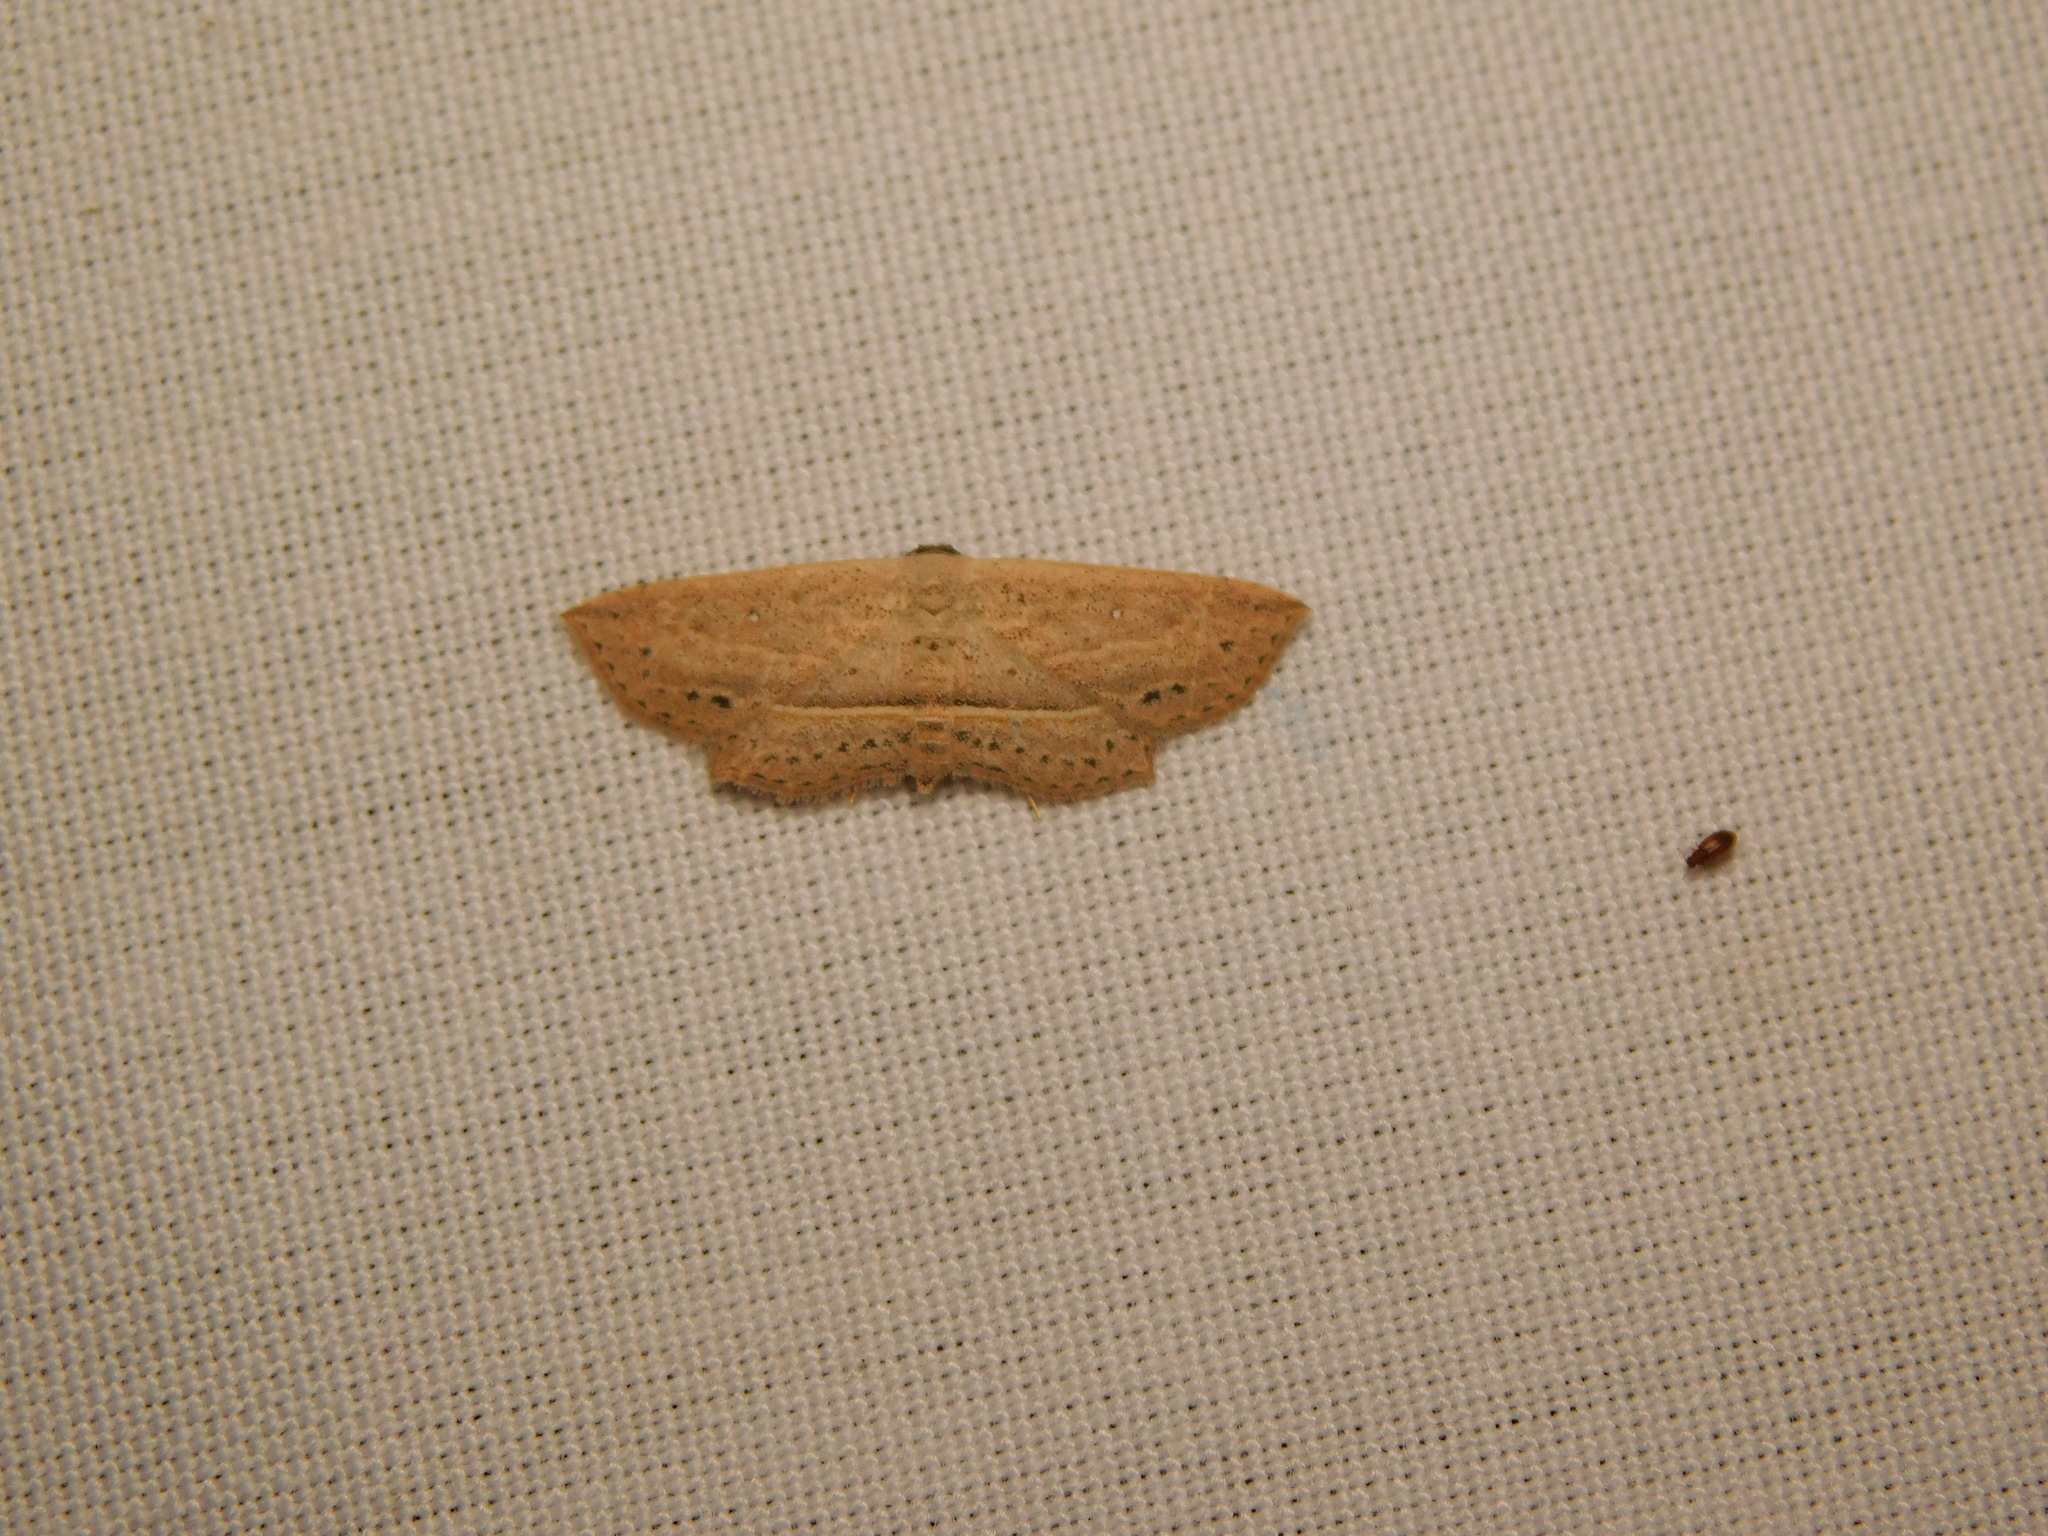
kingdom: Animalia
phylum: Arthropoda
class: Insecta
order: Lepidoptera
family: Noctuidae
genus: Hyposada
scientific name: Hyposada hydrocampata
